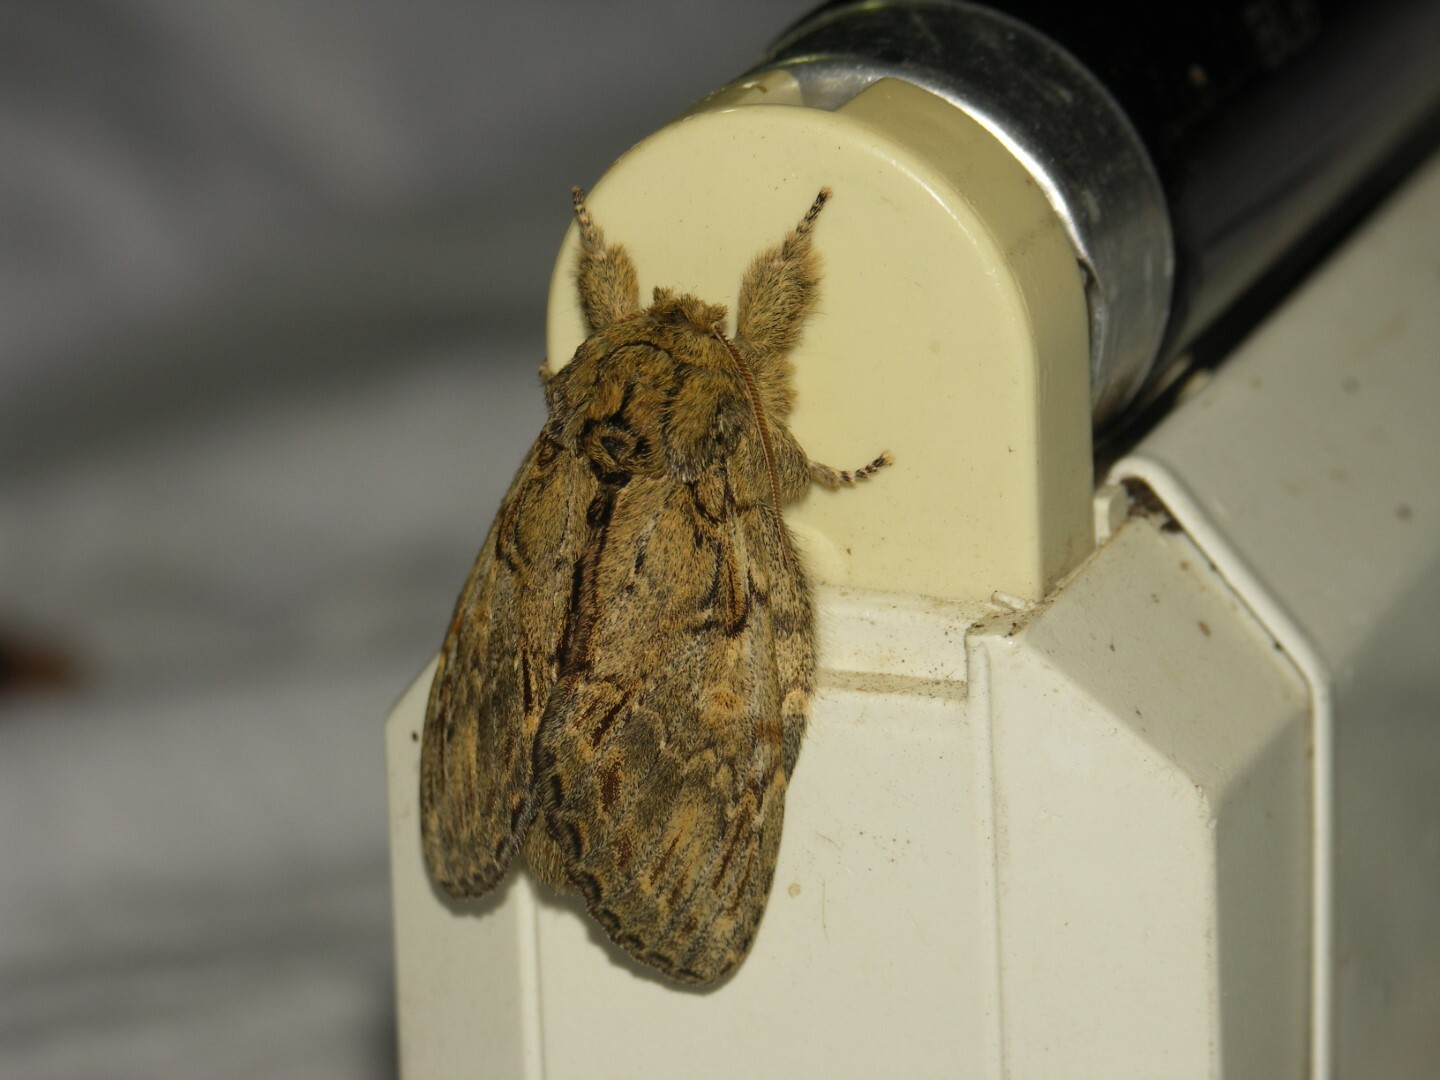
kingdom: Animalia
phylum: Arthropoda
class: Insecta
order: Lepidoptera
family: Notodontidae
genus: Peridea
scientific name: Peridea anceps
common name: Great prominent
